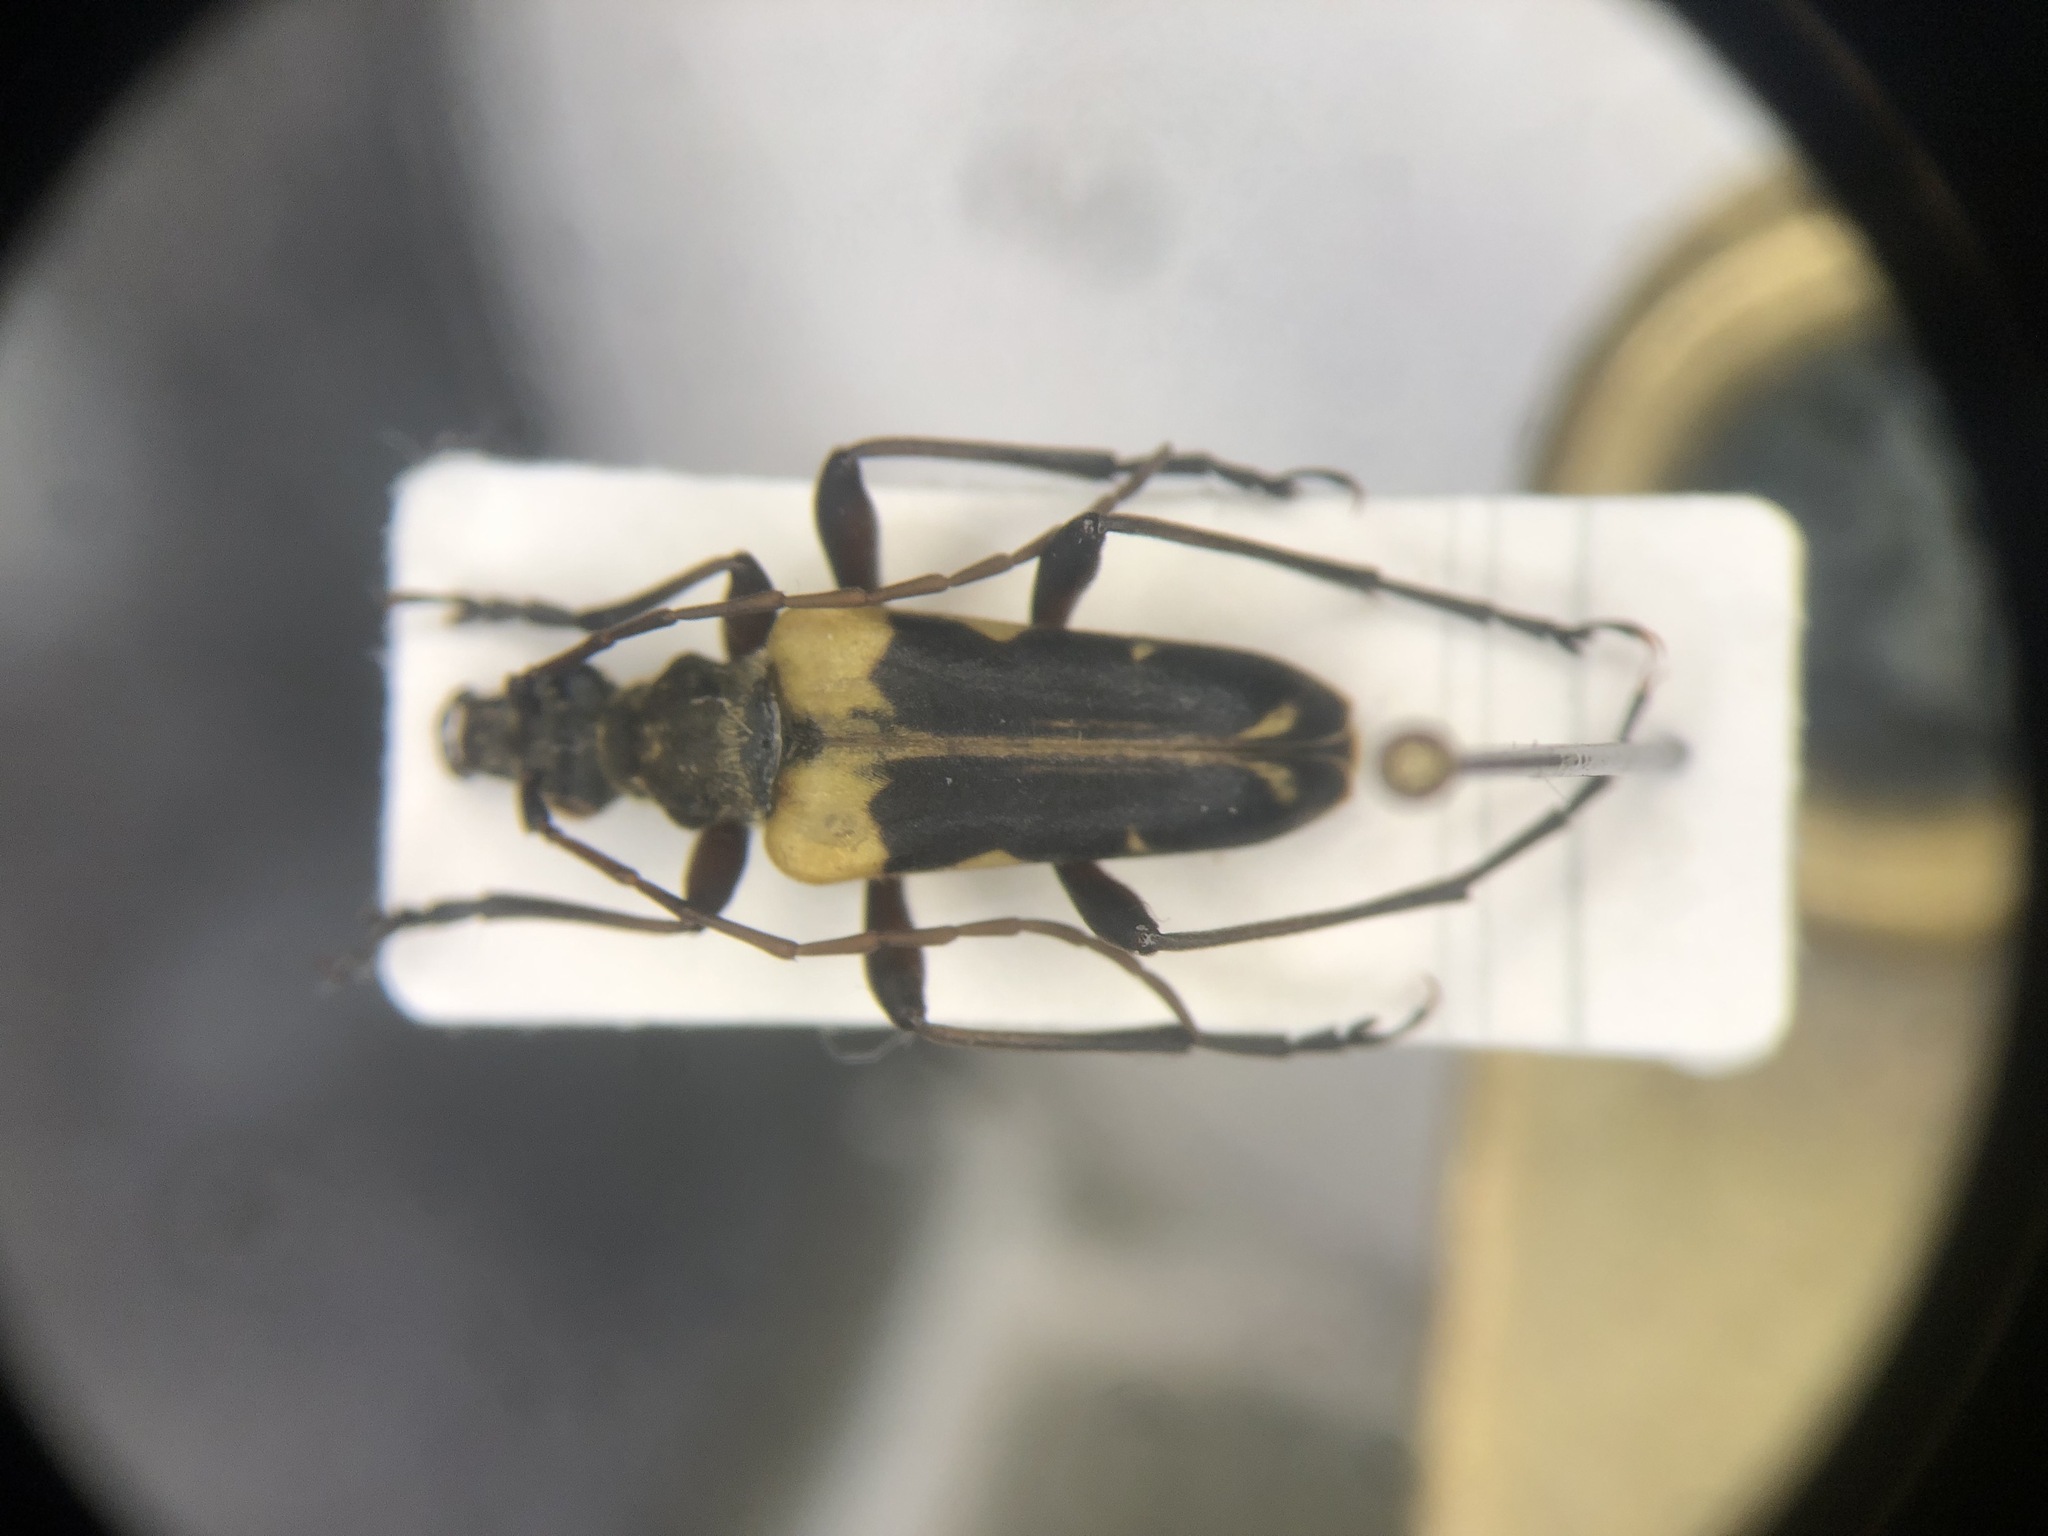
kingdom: Animalia
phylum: Arthropoda
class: Insecta
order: Coleoptera
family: Cerambycidae
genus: Evodinus
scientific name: Evodinus monticola
